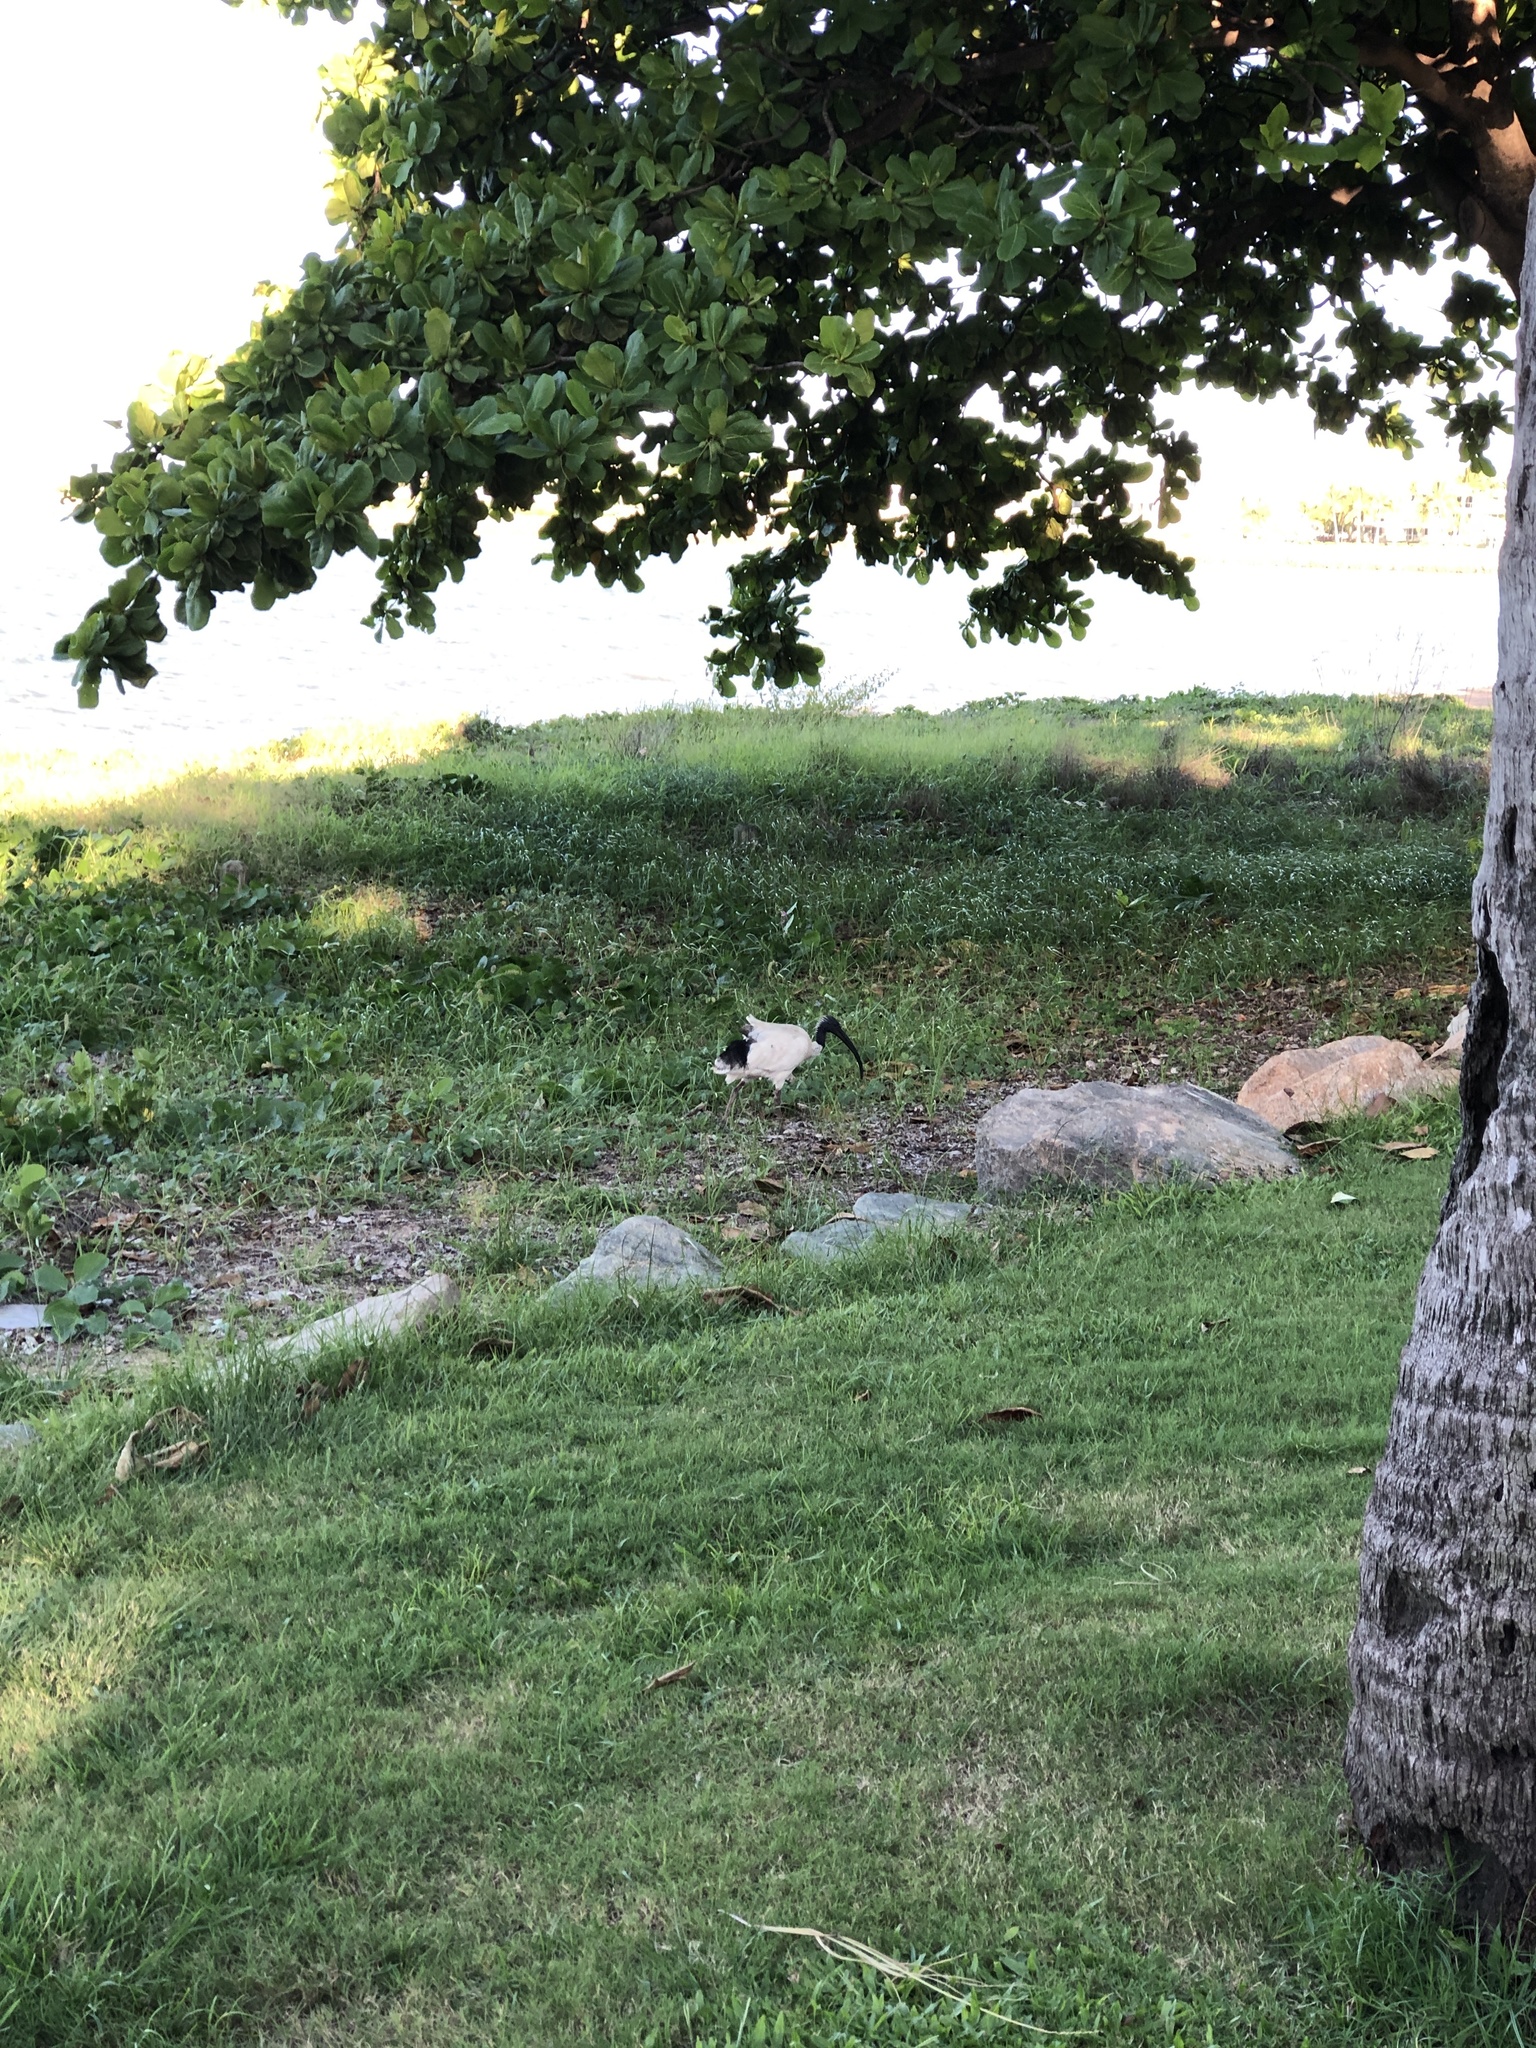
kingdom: Animalia
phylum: Chordata
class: Aves
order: Pelecaniformes
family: Threskiornithidae
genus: Threskiornis
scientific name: Threskiornis molucca
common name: Australian white ibis
